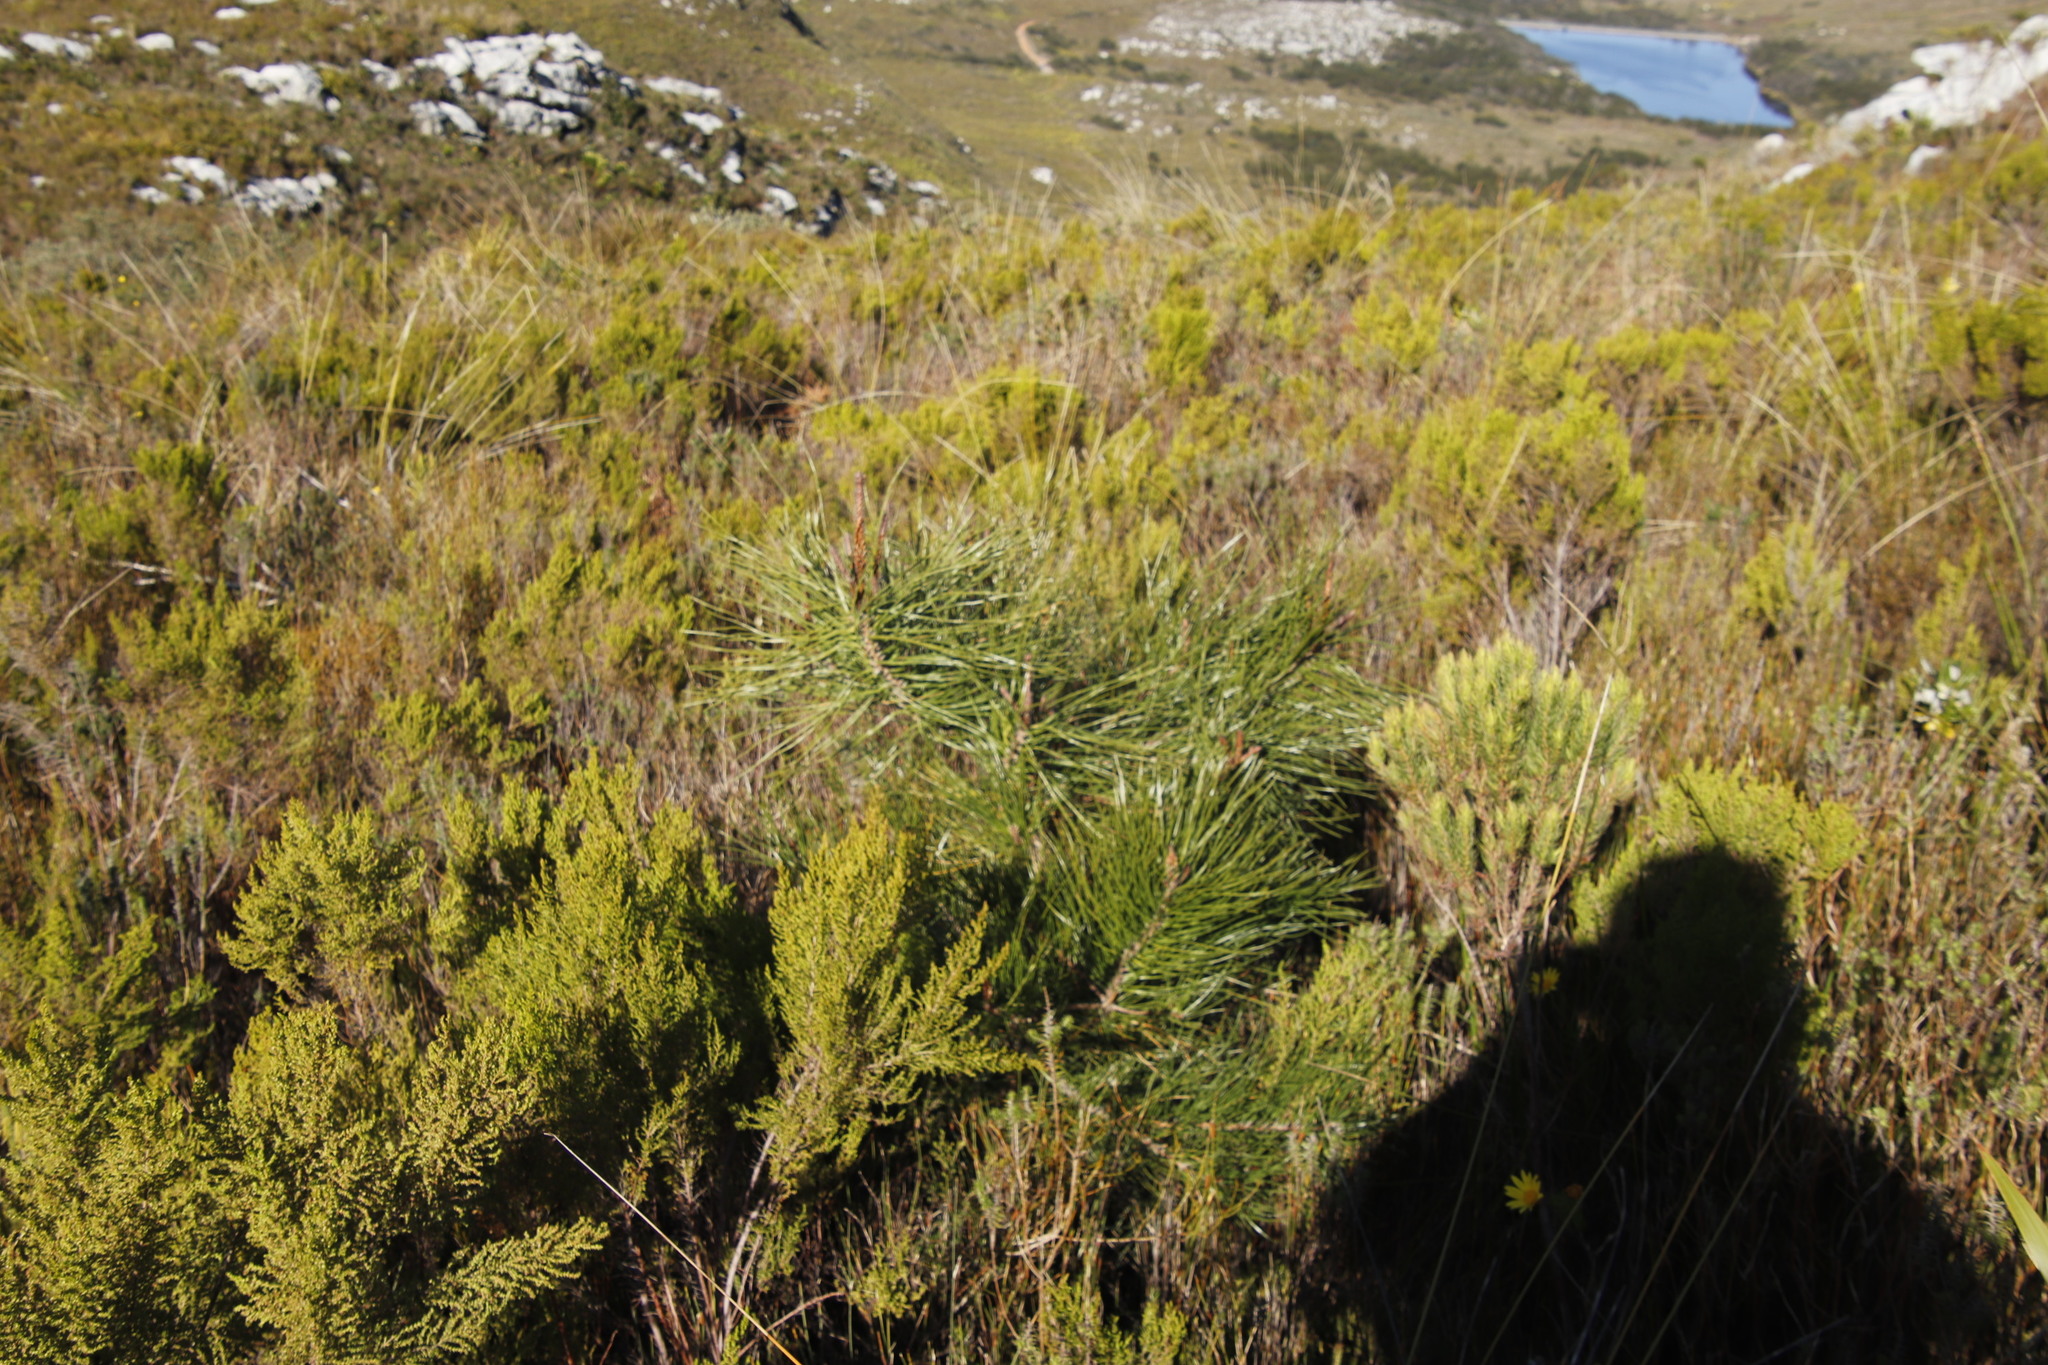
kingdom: Plantae
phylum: Tracheophyta
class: Pinopsida
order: Pinales
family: Pinaceae
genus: Pinus
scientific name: Pinus pinaster
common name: Maritime pine
